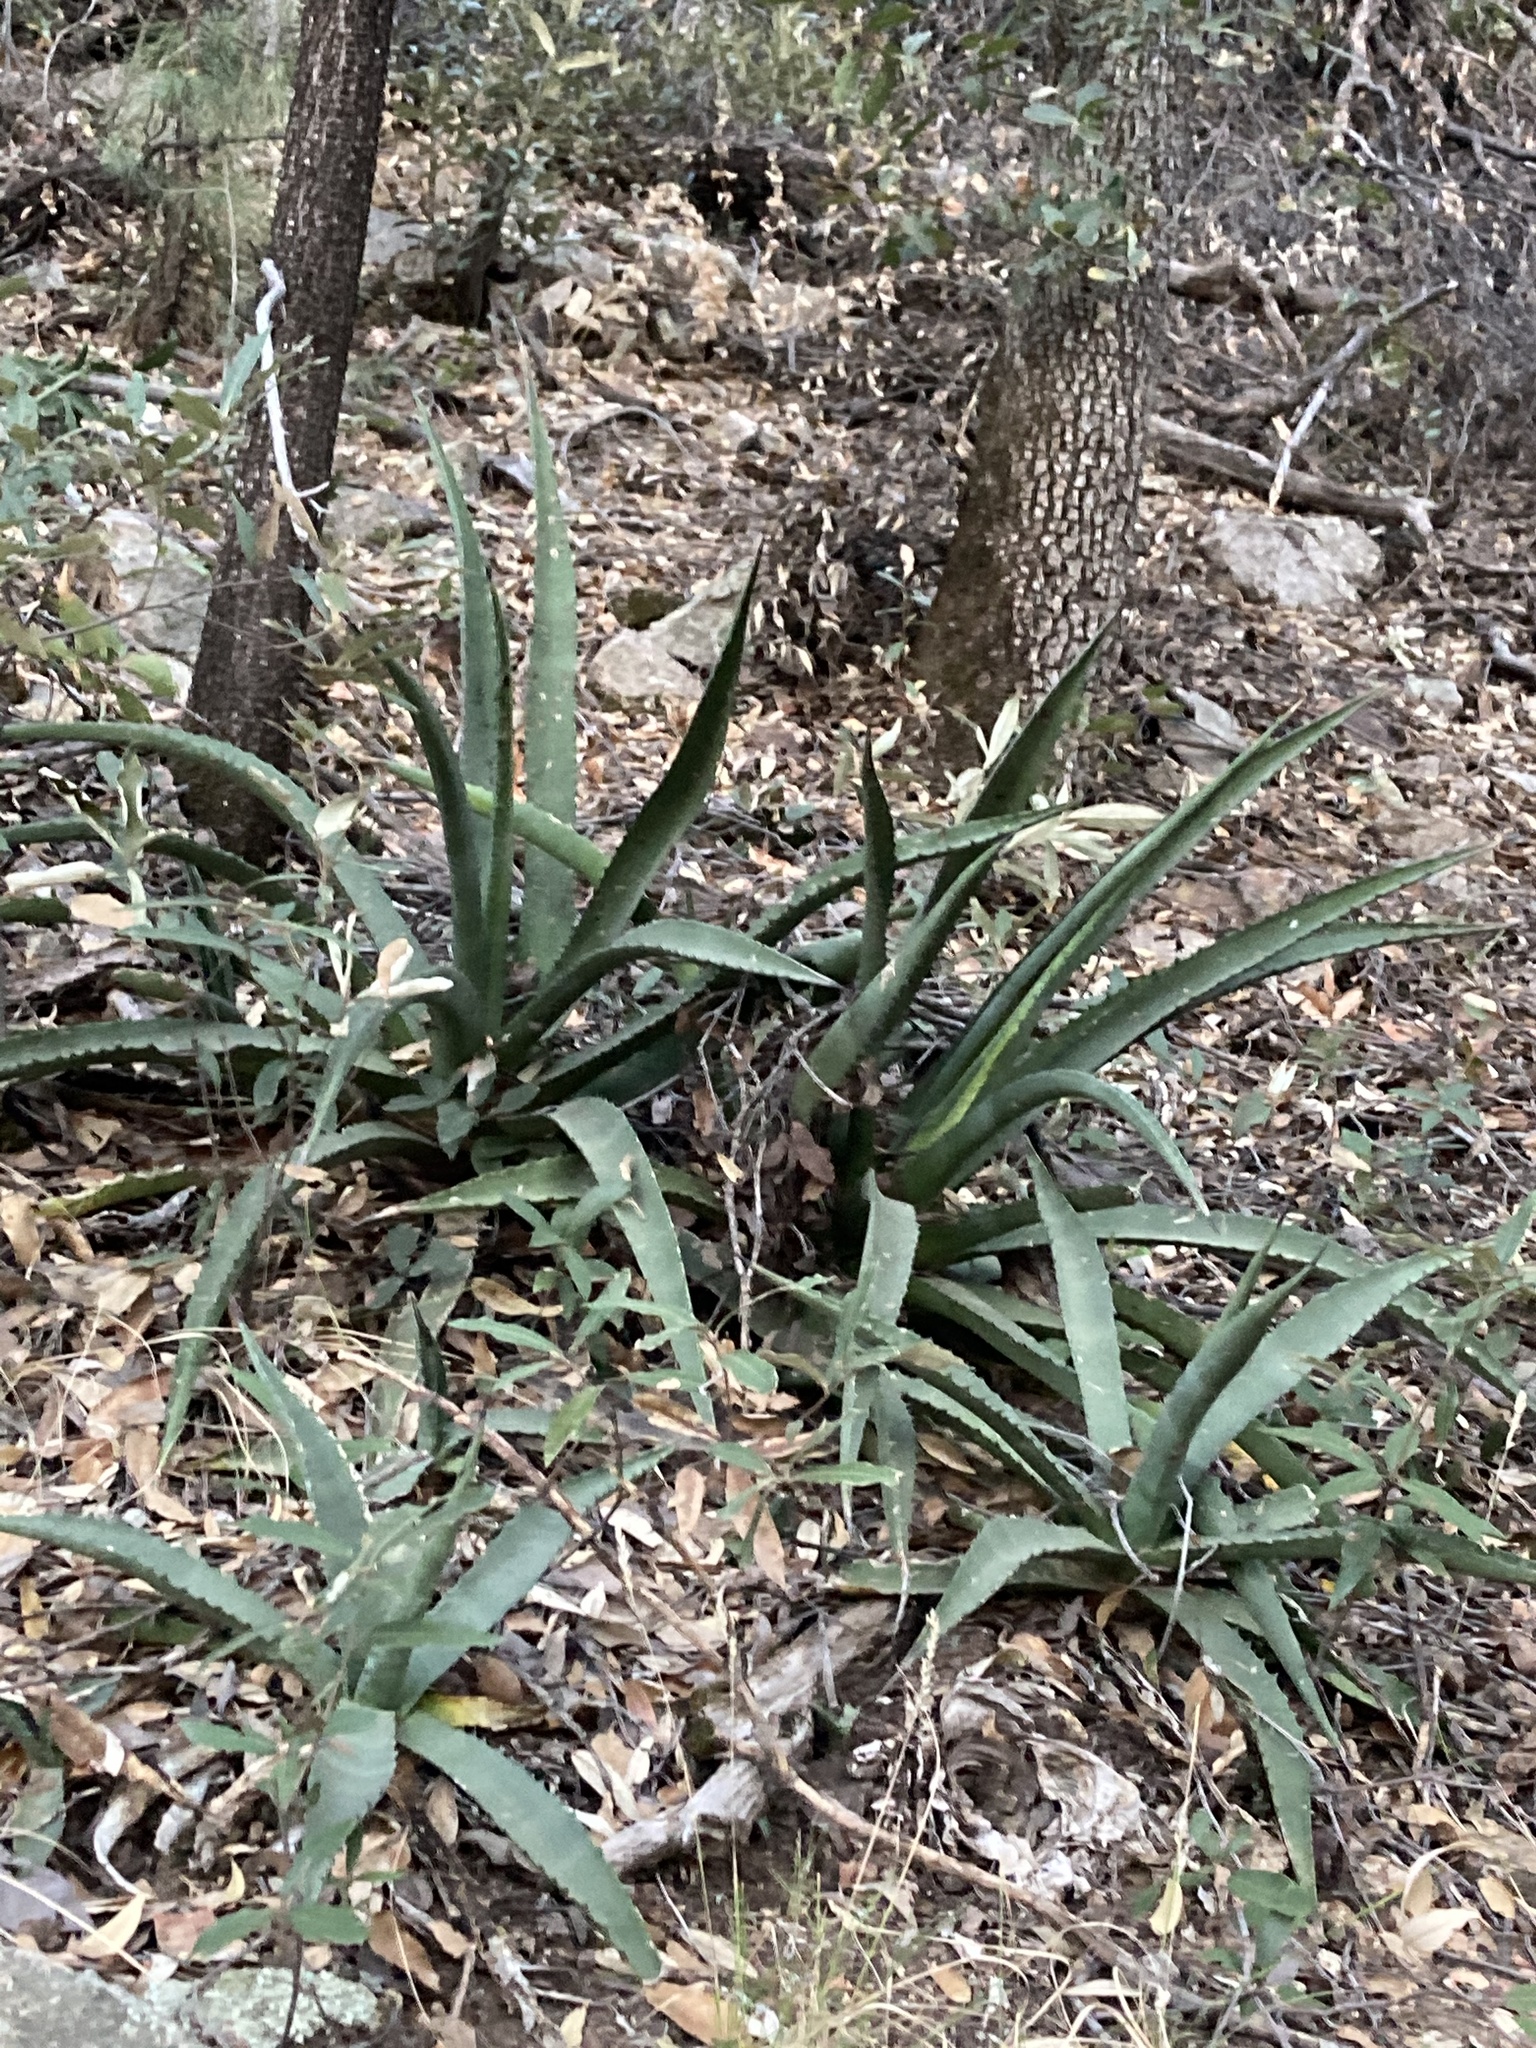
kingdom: Plantae
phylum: Tracheophyta
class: Liliopsida
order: Asparagales
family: Asparagaceae
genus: Agave
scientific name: Agave palmeri
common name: Palmer agave
